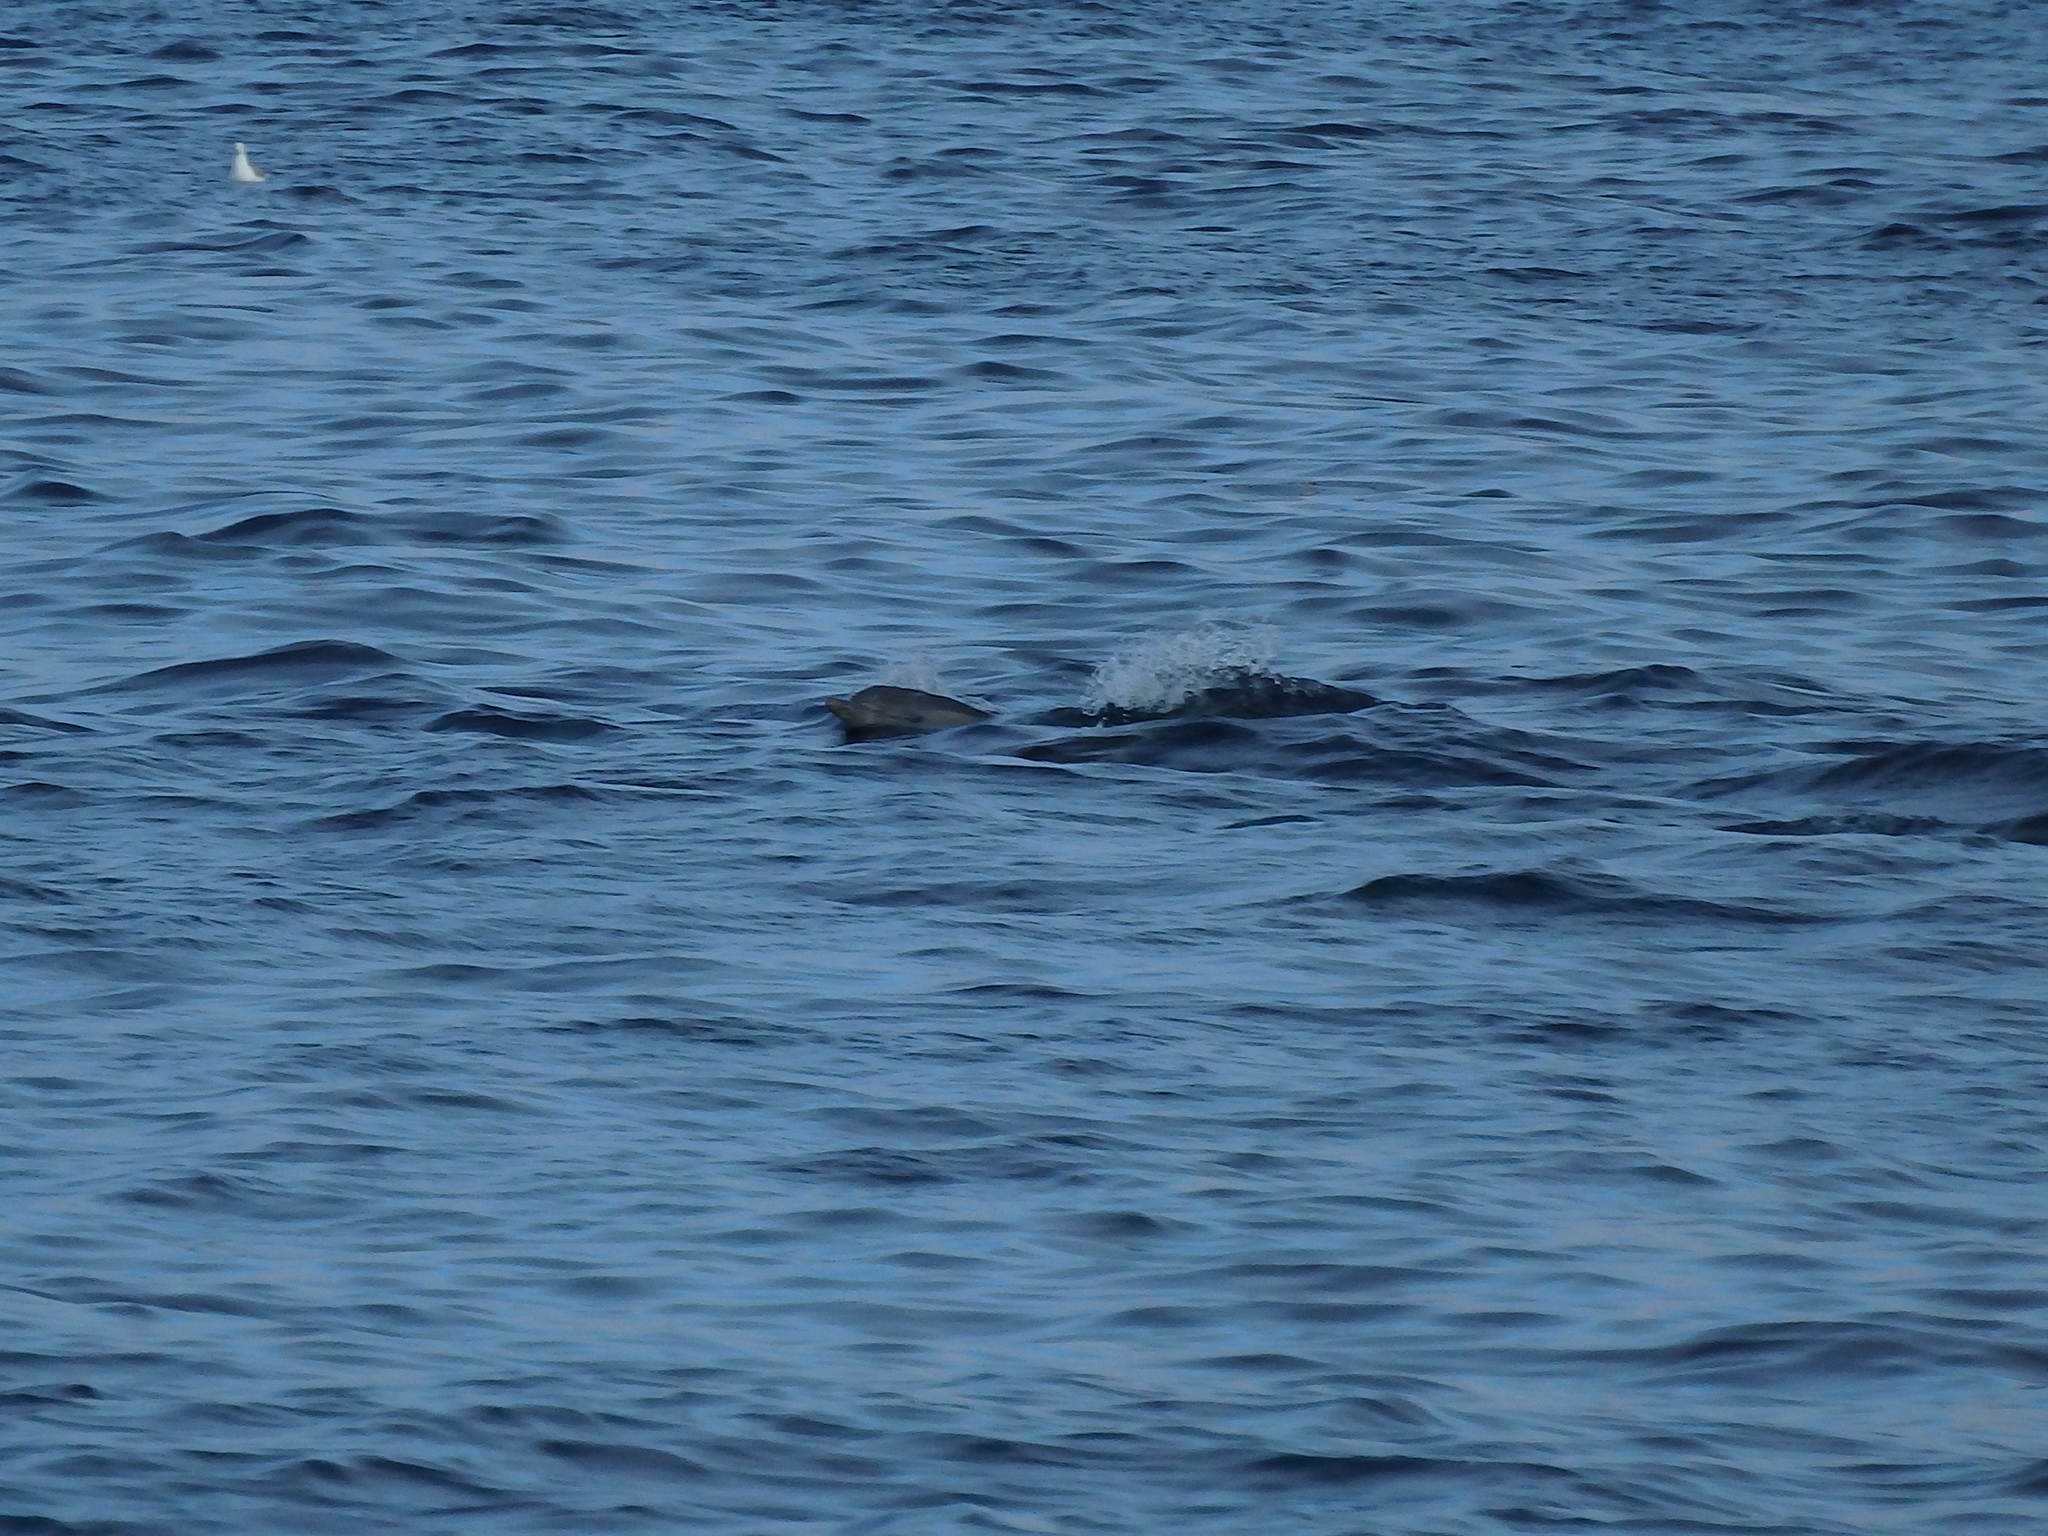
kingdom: Animalia
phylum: Chordata
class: Mammalia
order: Cetacea
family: Delphinidae
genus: Delphinus
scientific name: Delphinus delphis
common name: Common dolphin
